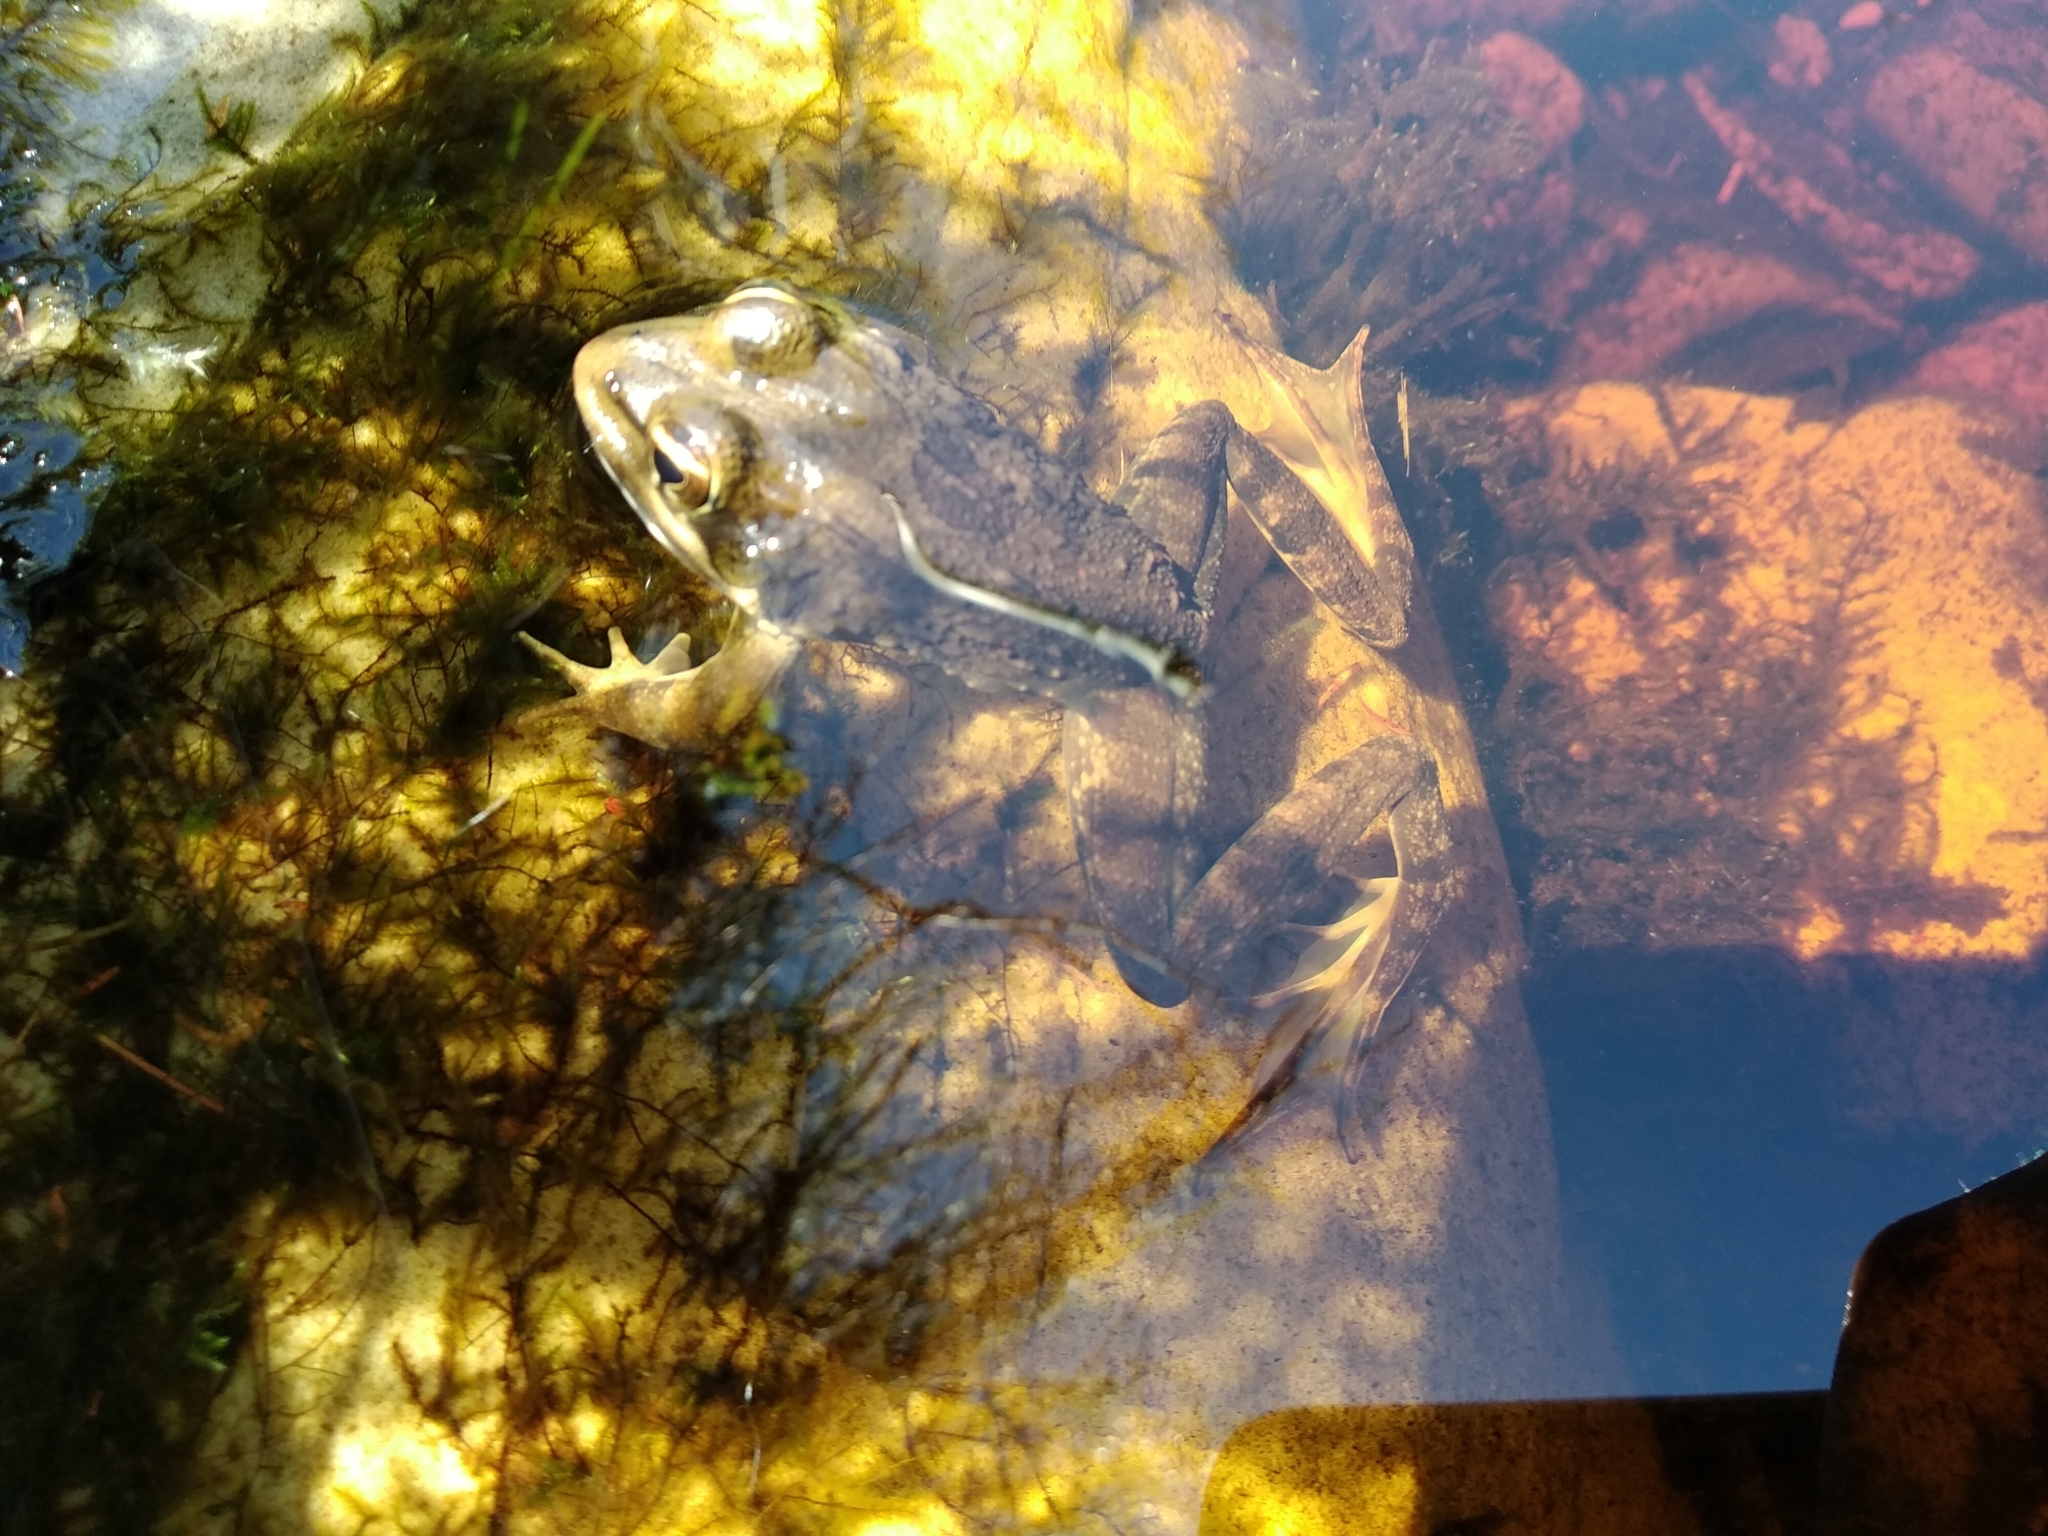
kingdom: Animalia
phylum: Chordata
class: Amphibia
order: Anura
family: Pyxicephalidae
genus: Amietia
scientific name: Amietia fuscigula
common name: Cape rana
